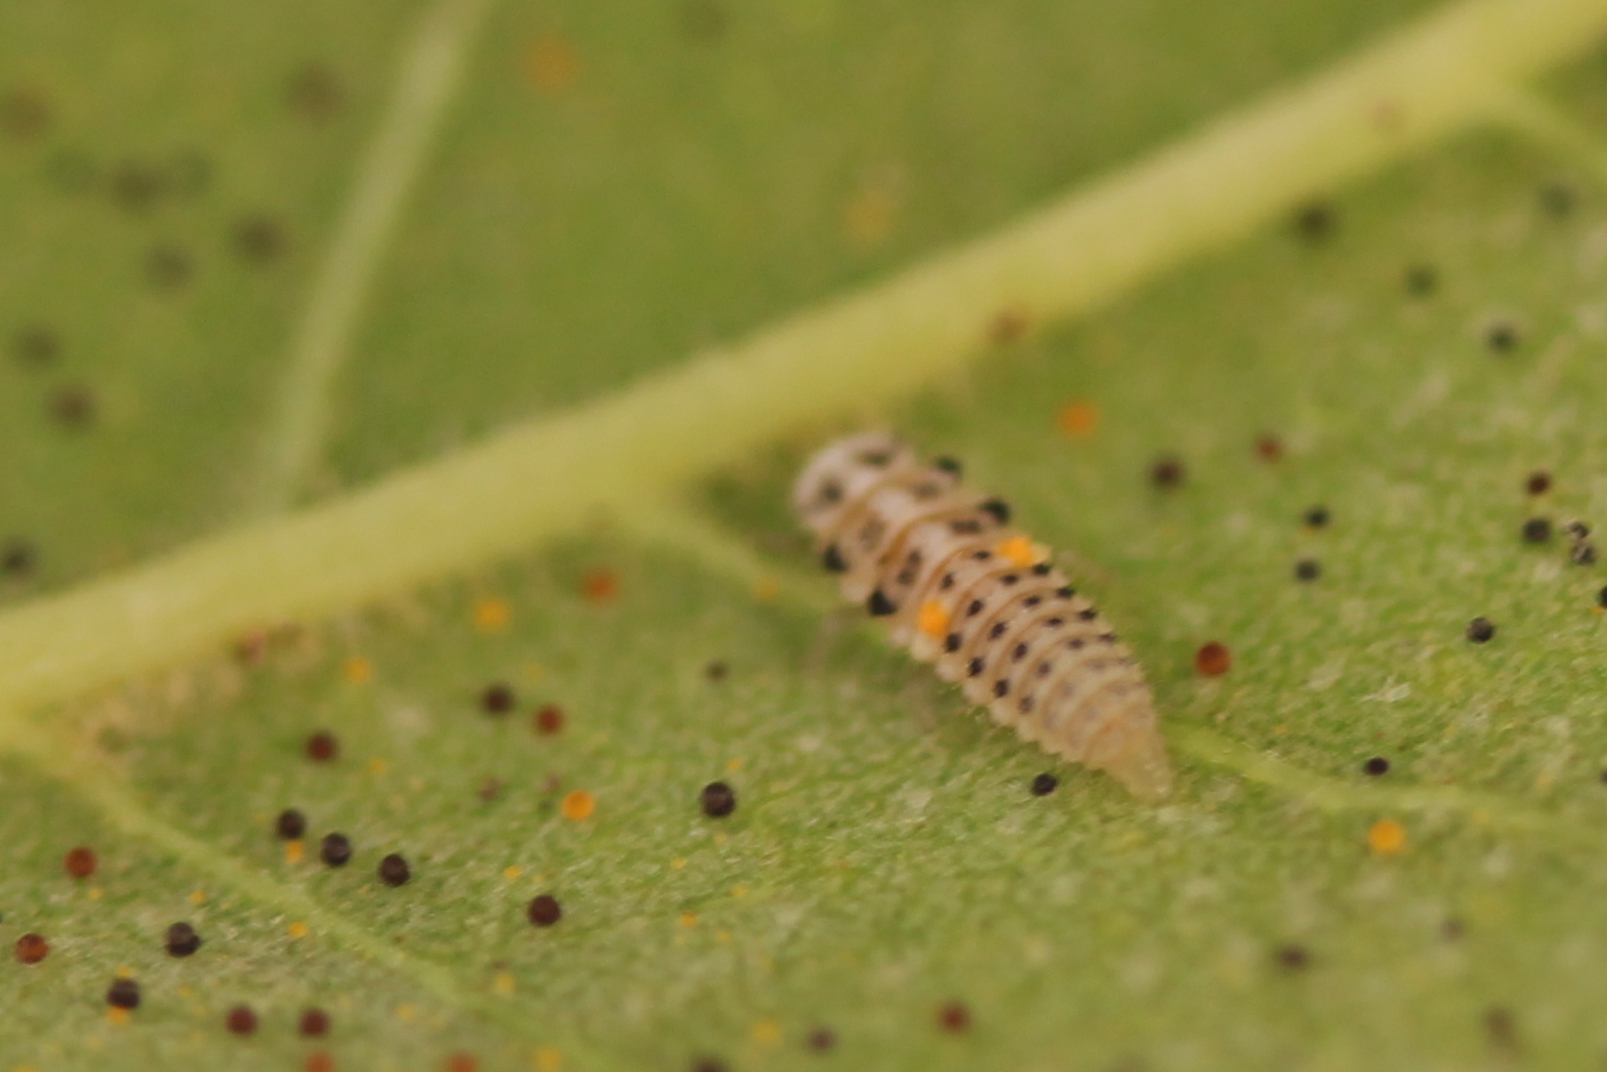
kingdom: Animalia
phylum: Arthropoda
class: Insecta
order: Coleoptera
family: Coccinellidae
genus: Psyllobora
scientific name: Psyllobora vigintimaculata
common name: Ladybird beetle
